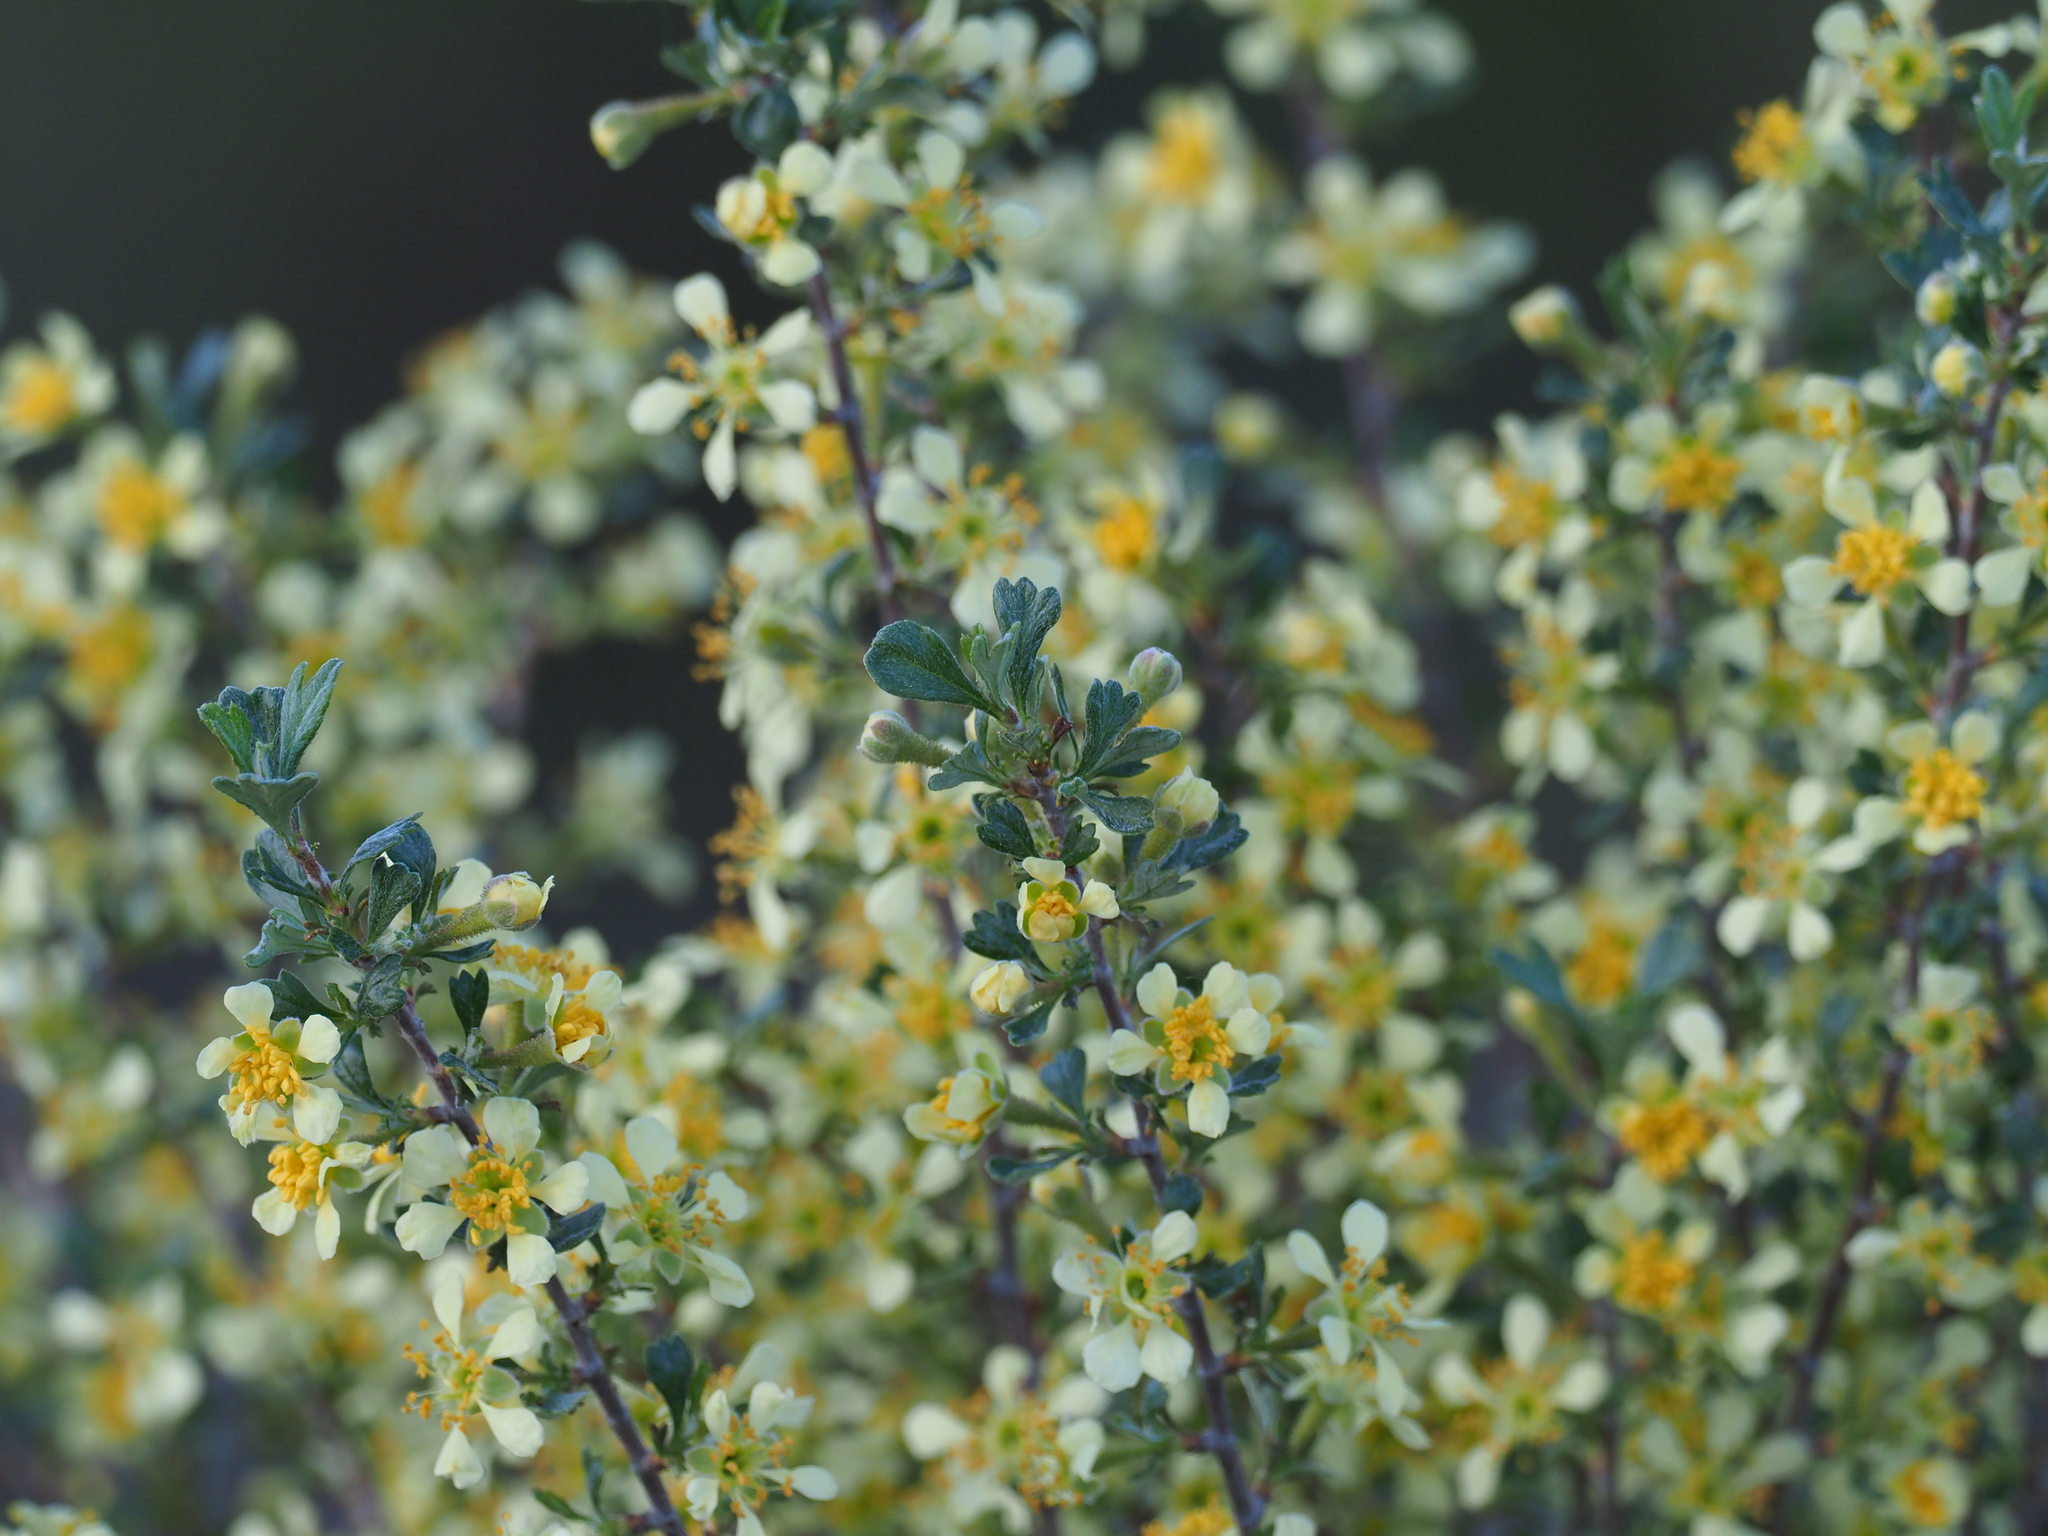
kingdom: Plantae
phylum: Tracheophyta
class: Magnoliopsida
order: Rosales
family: Rosaceae
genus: Purshia
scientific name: Purshia tridentata
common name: Antelope bitterbrush
